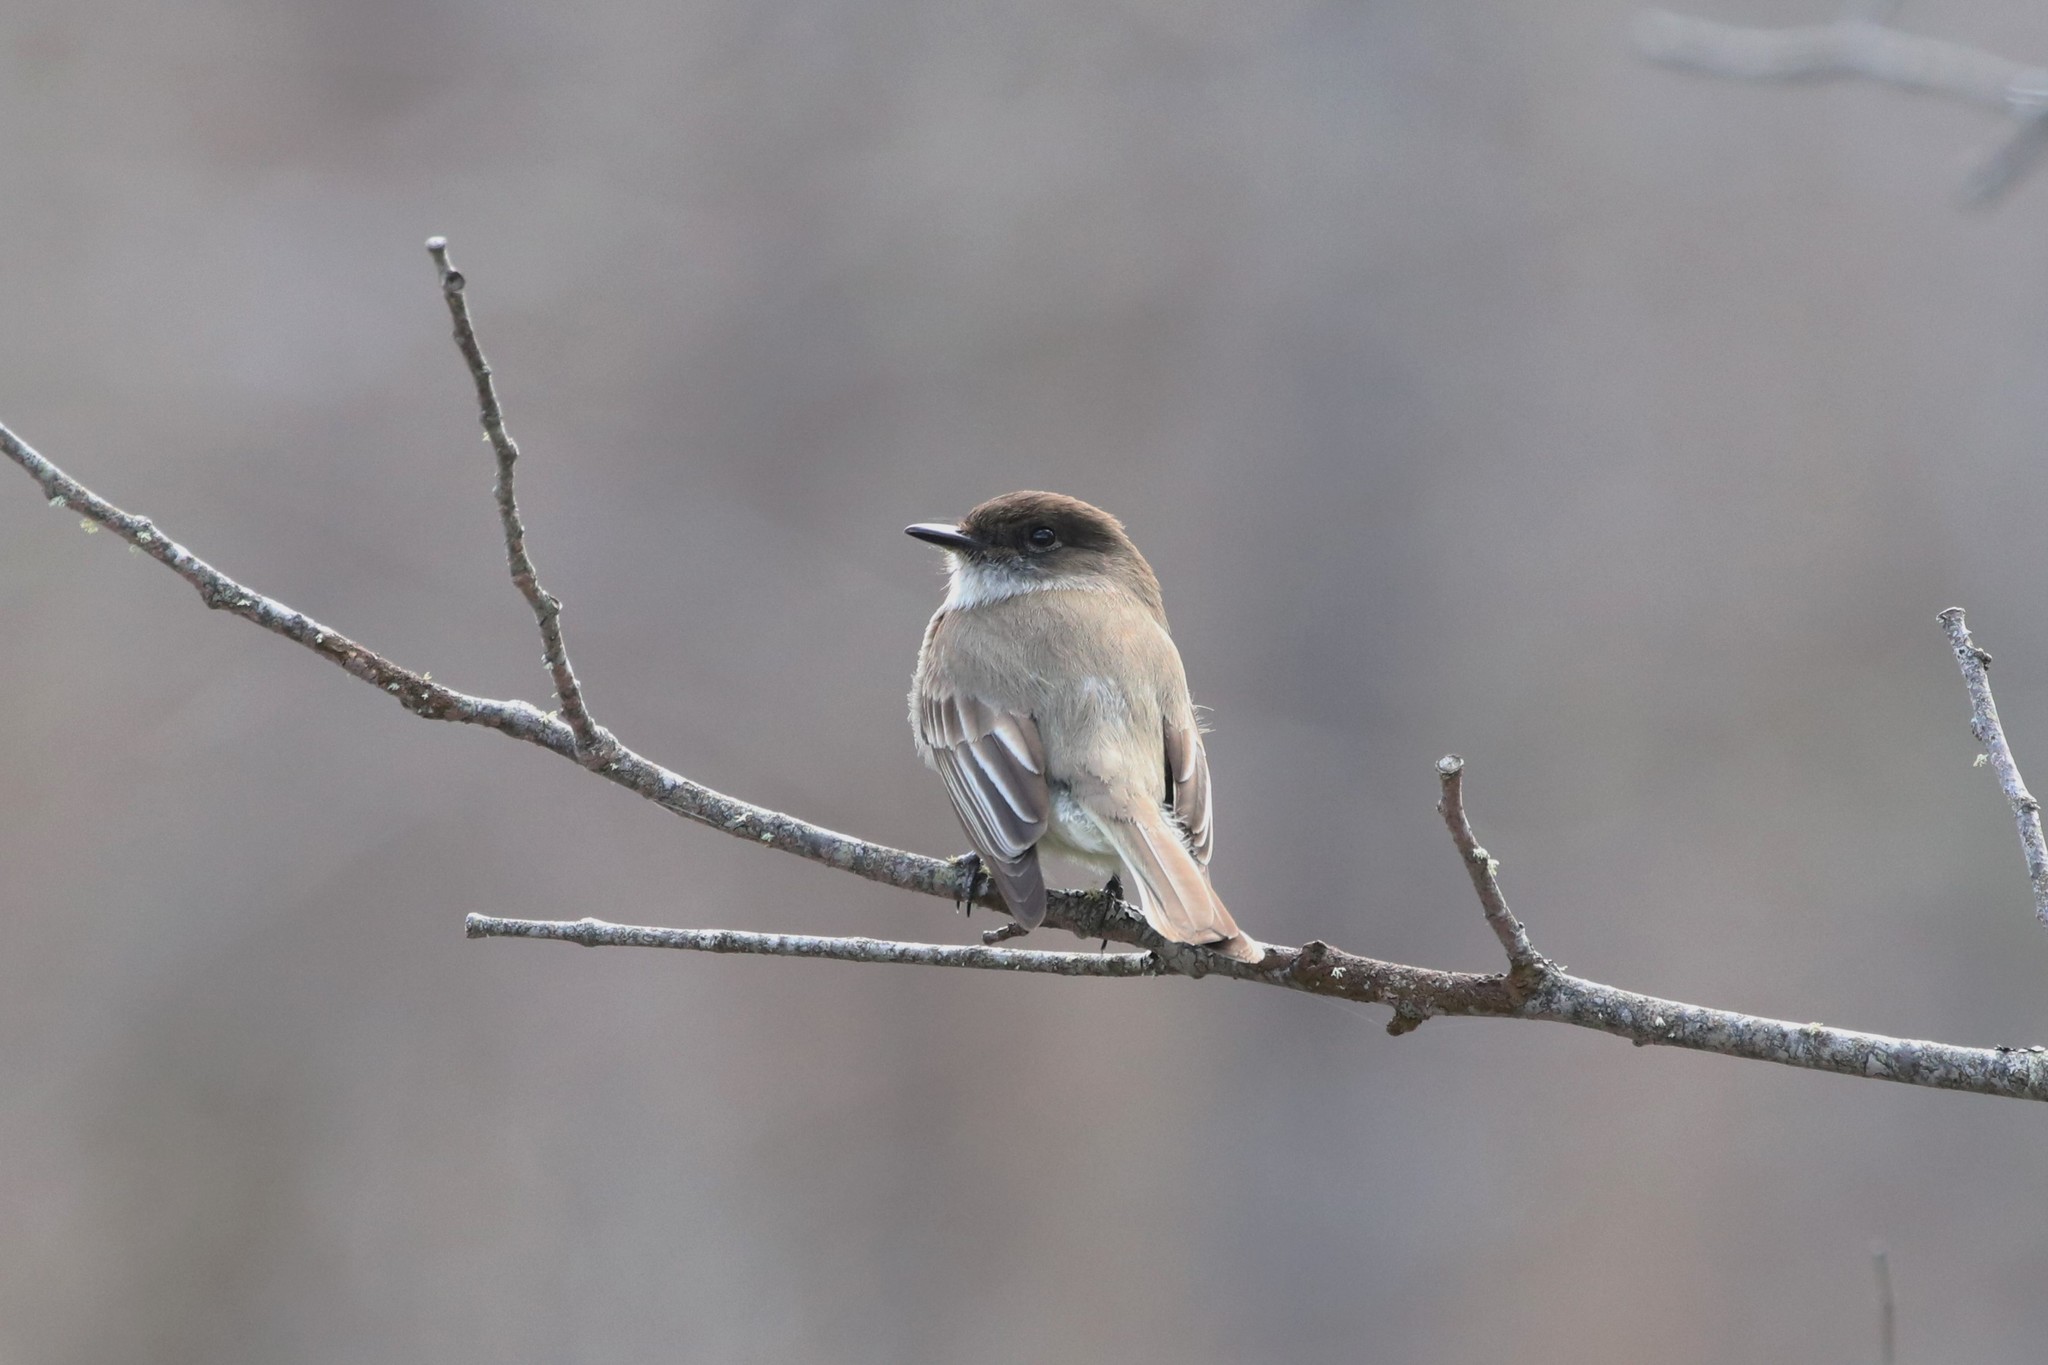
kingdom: Animalia
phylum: Chordata
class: Aves
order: Passeriformes
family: Tyrannidae
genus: Sayornis
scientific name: Sayornis phoebe
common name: Eastern phoebe
